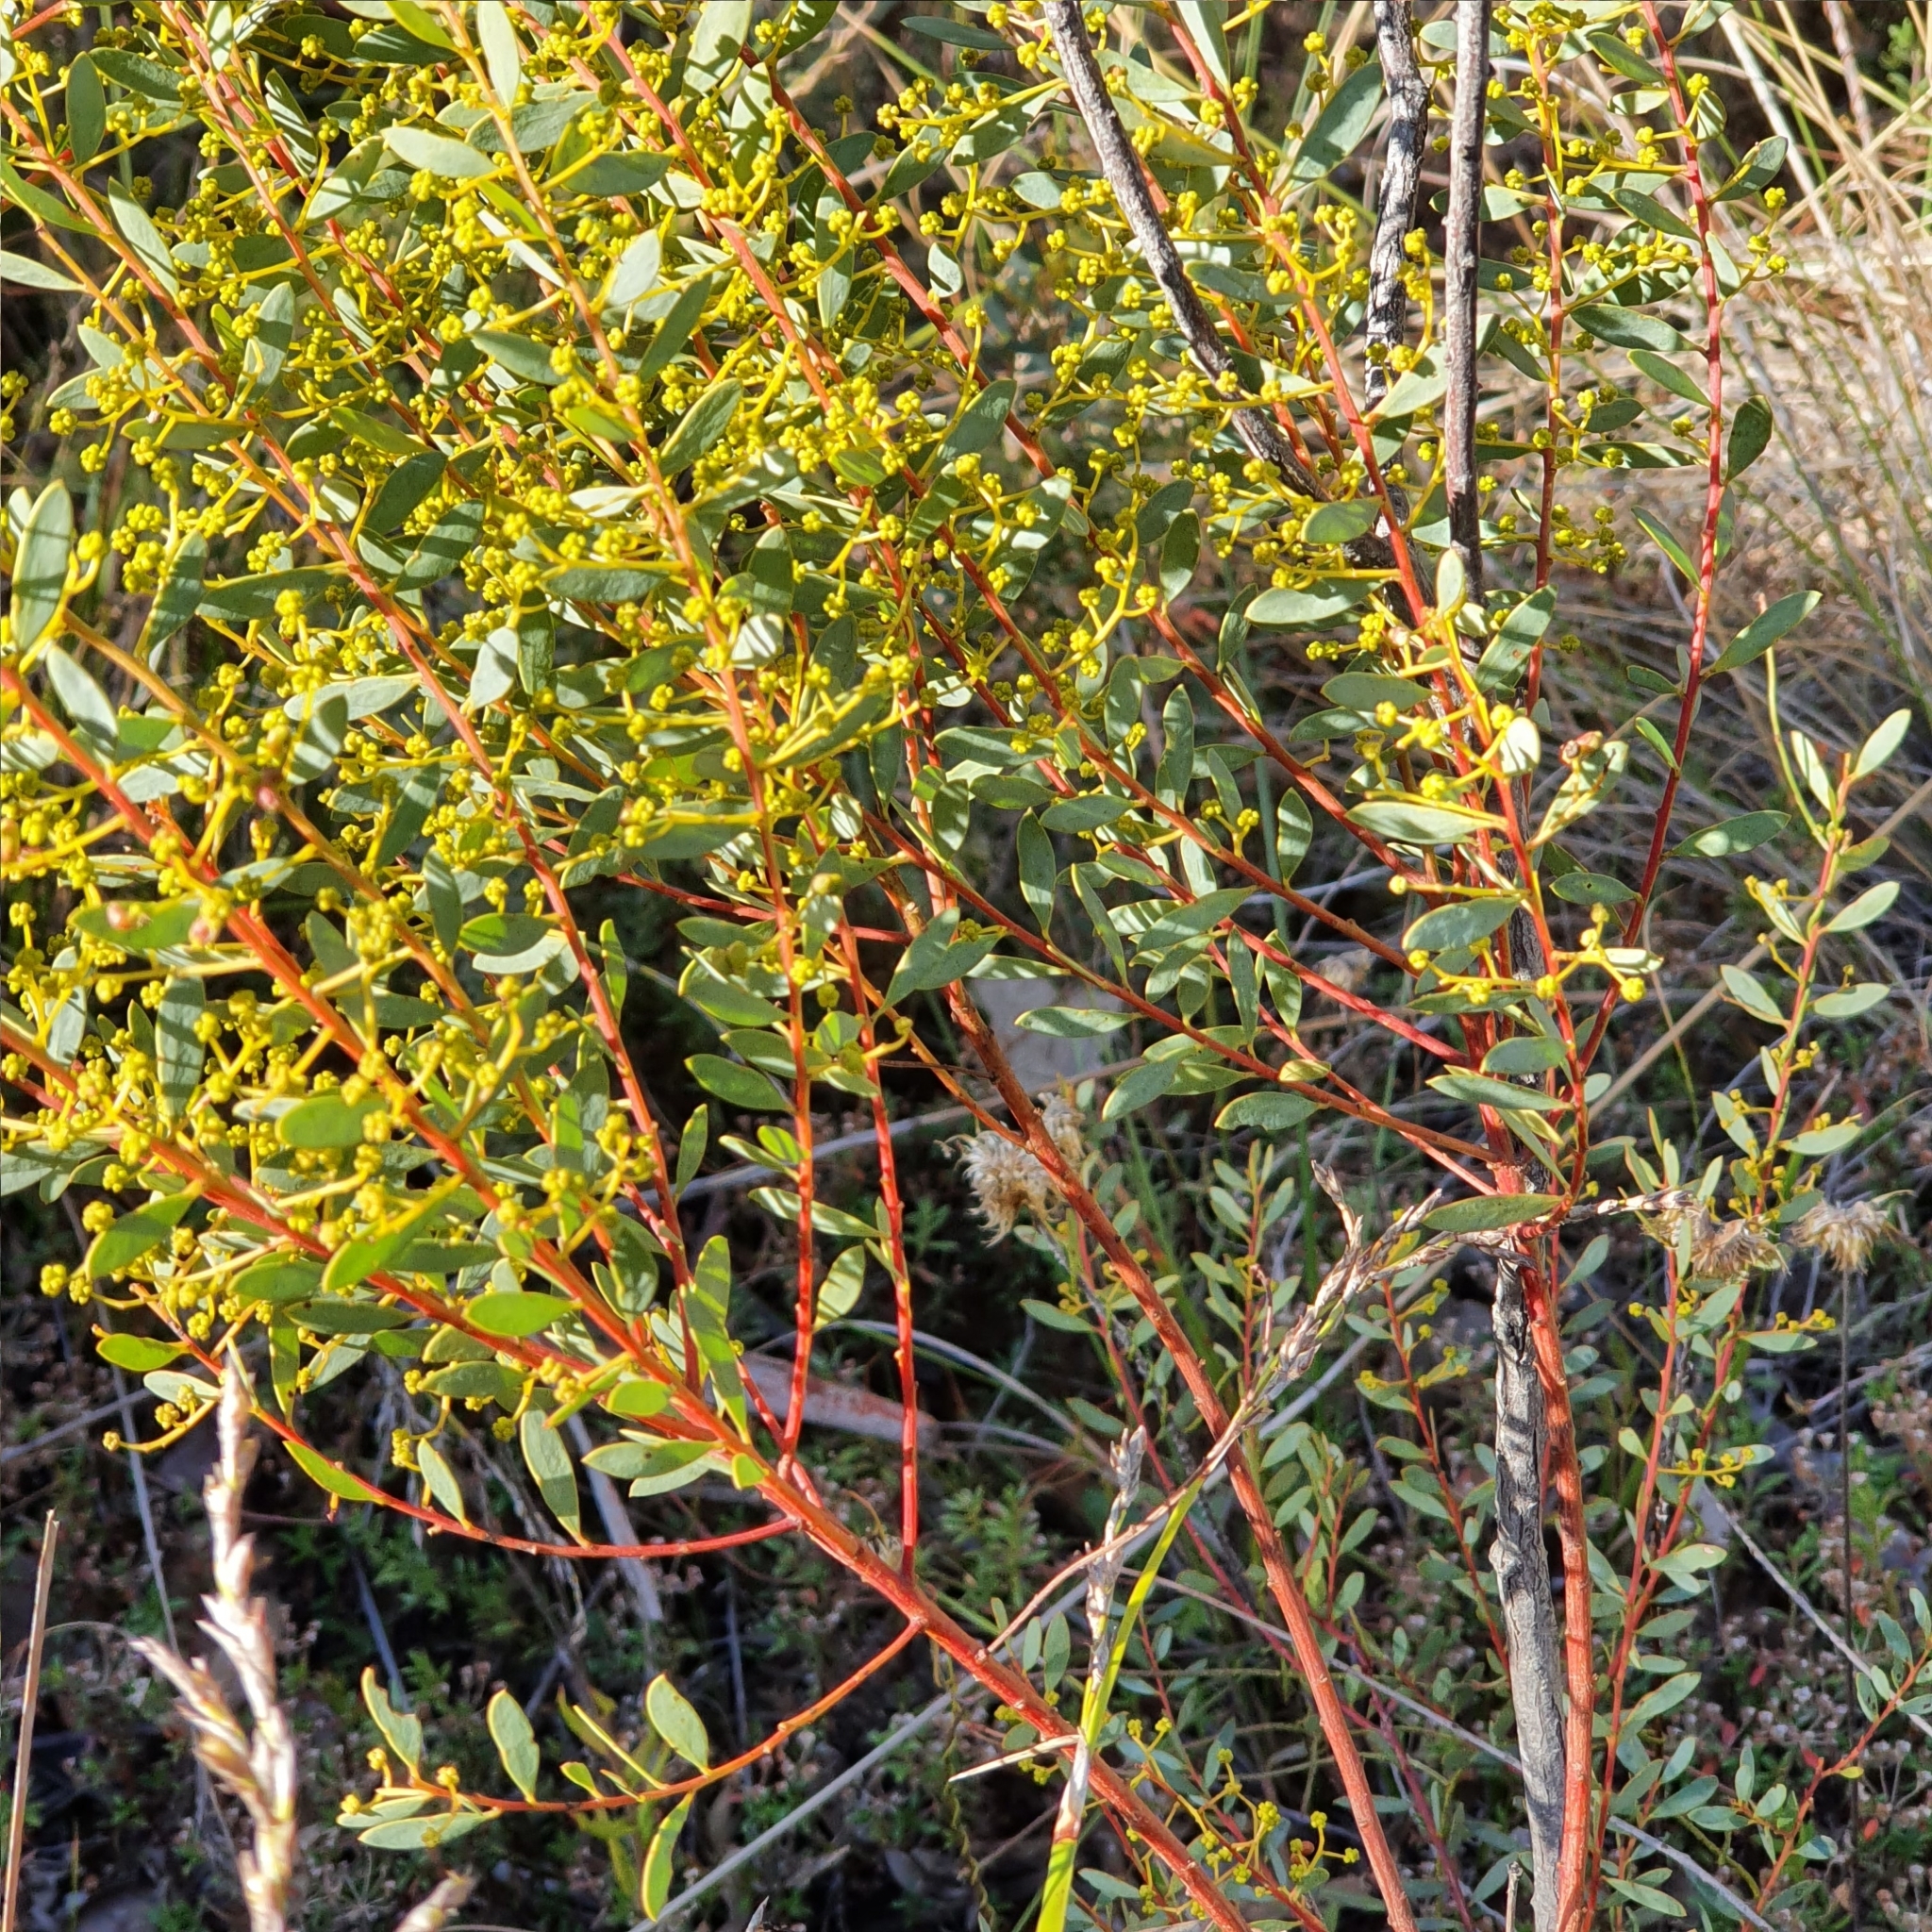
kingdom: Plantae
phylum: Tracheophyta
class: Magnoliopsida
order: Fabales
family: Fabaceae
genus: Acacia
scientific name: Acacia buxifolia
